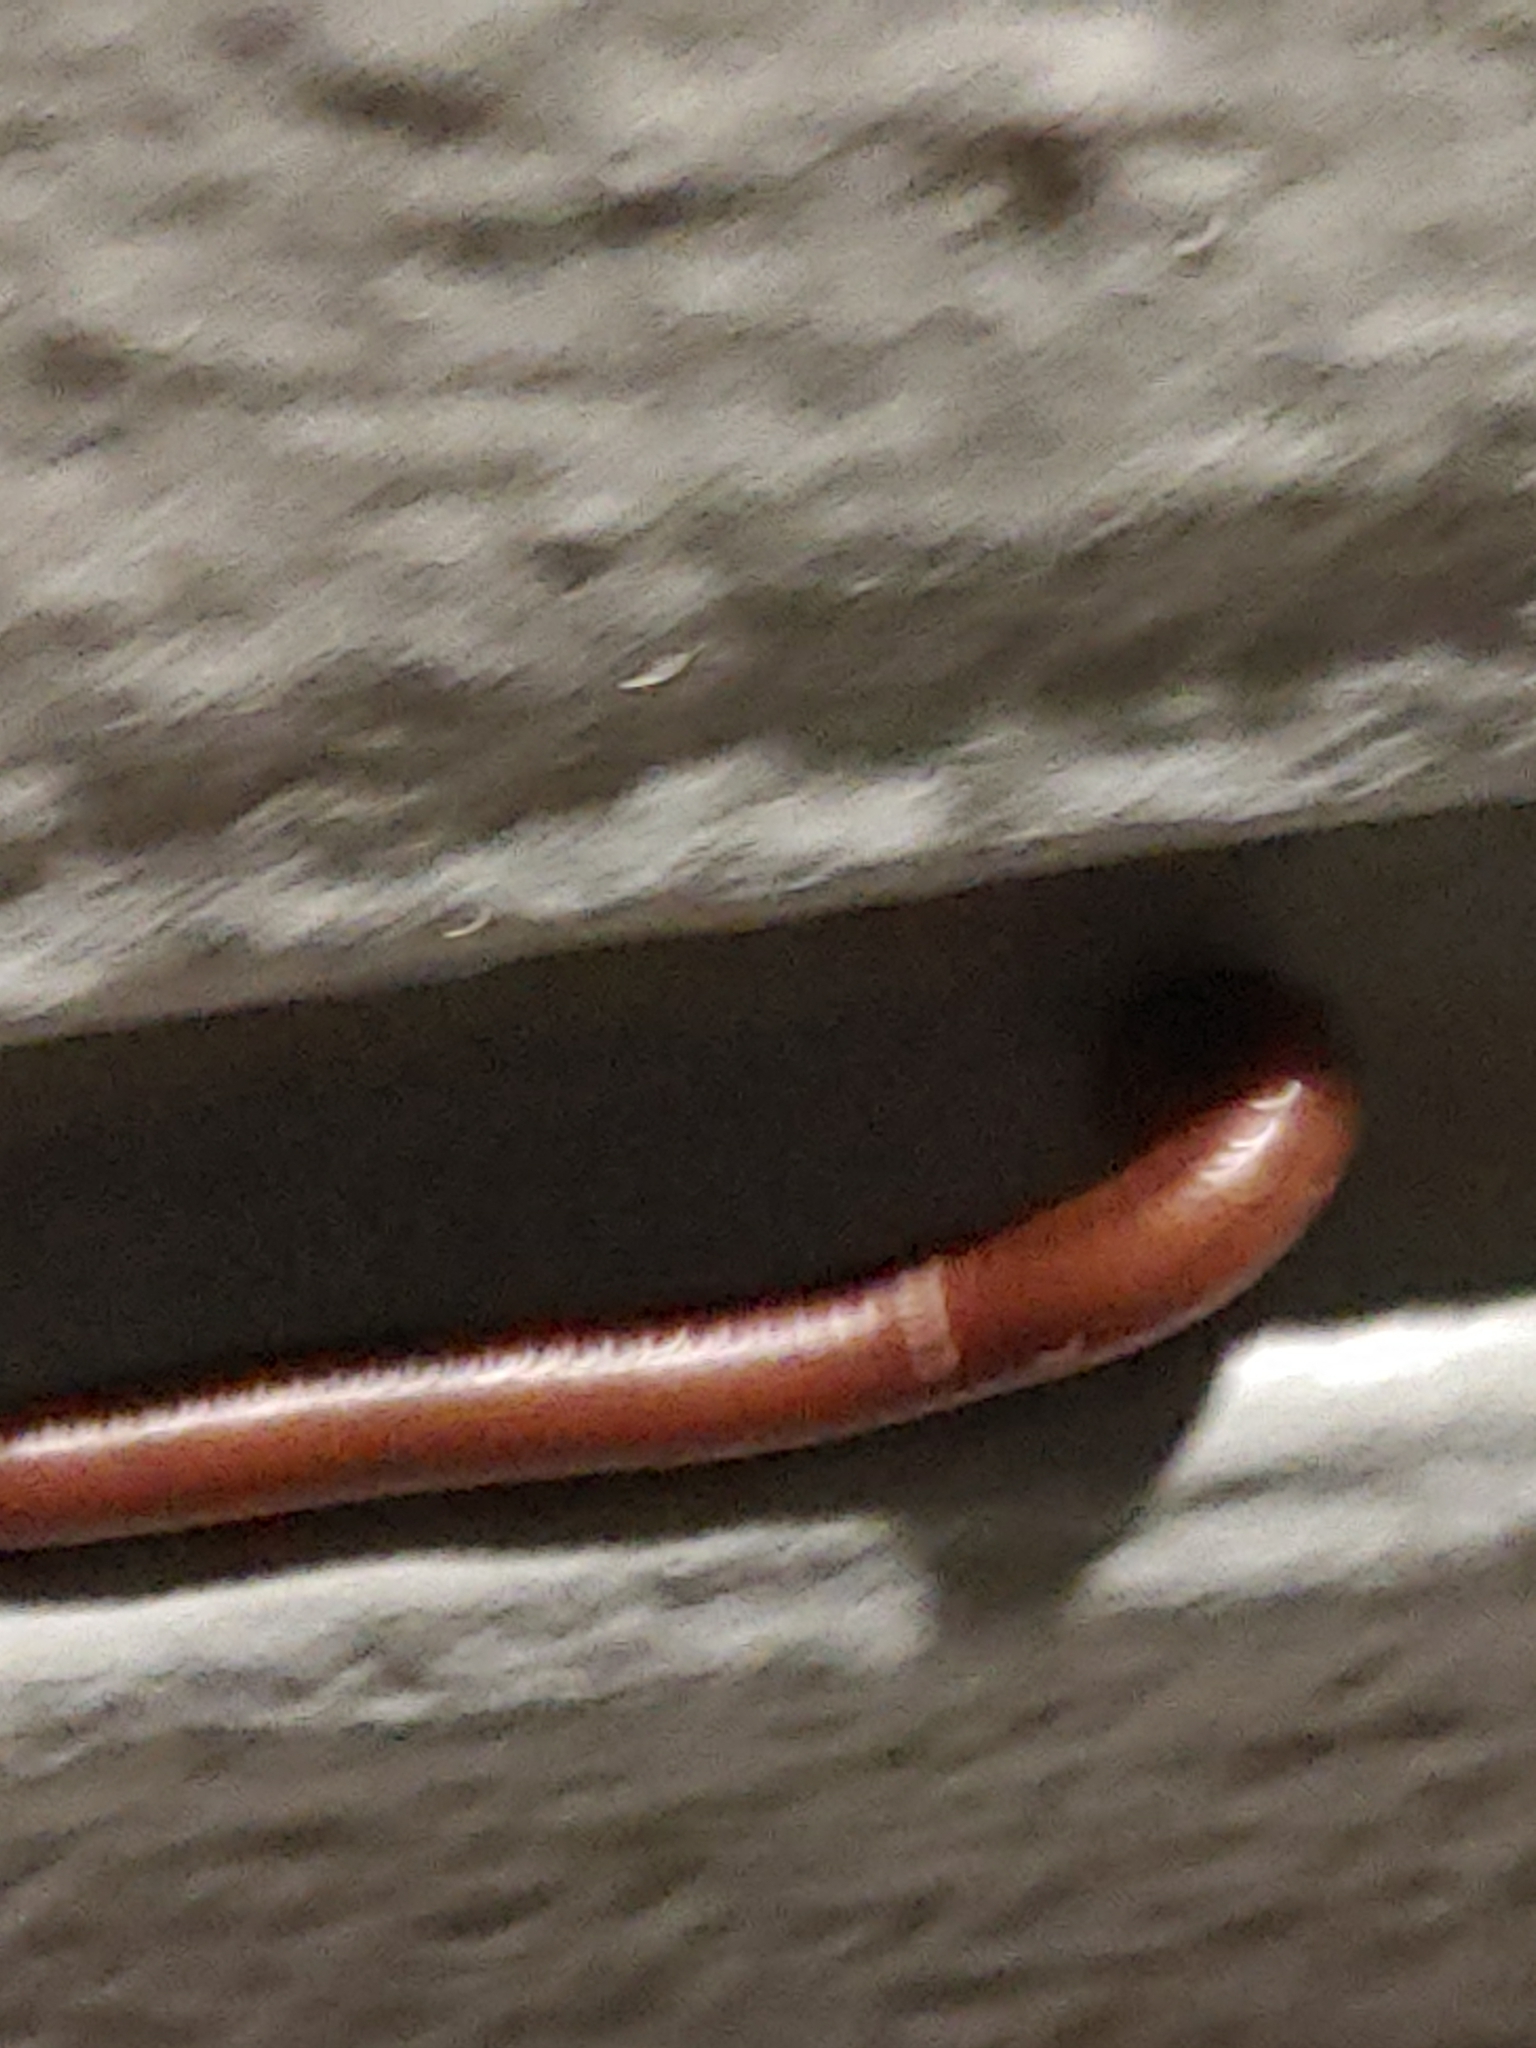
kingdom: Animalia
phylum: Arthropoda
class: Diplopoda
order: Spirobolida
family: Pachybolidae
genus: Trigoniulus
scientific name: Trigoniulus corallinus
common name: Millipede
